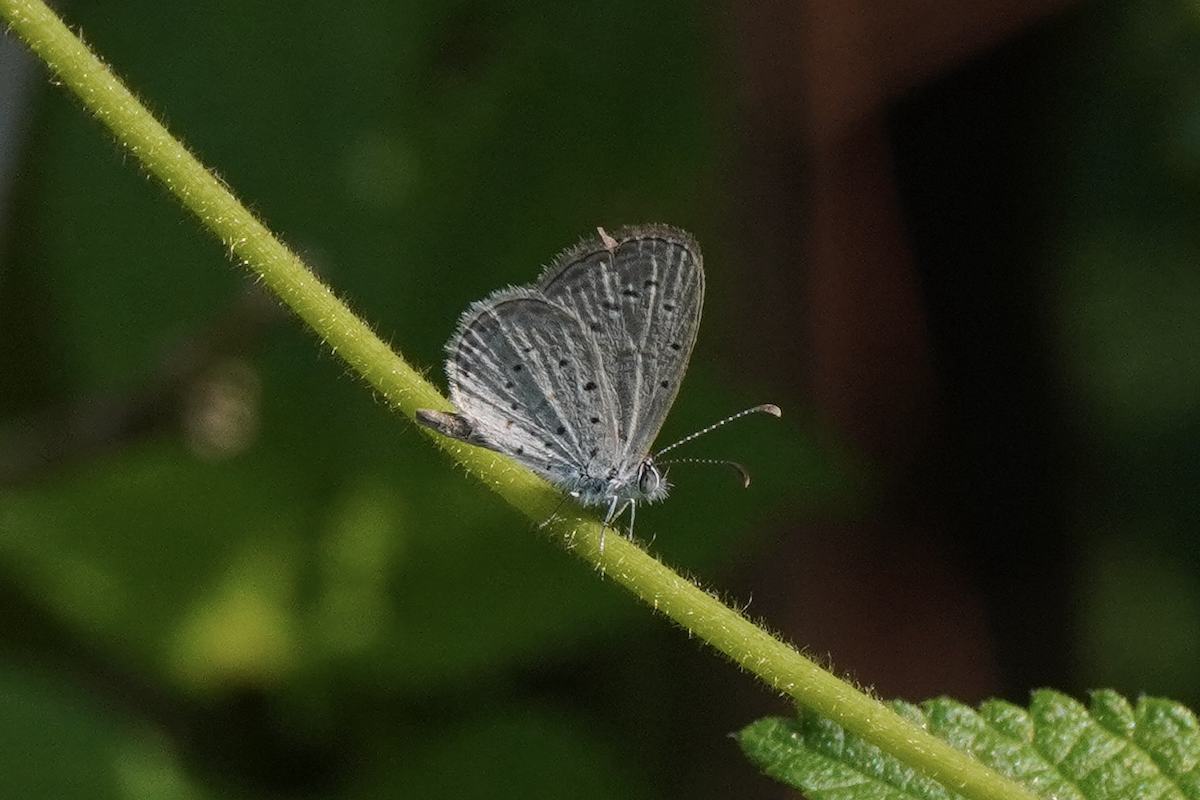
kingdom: Animalia
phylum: Arthropoda
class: Insecta
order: Lepidoptera
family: Lycaenidae
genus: Zizula
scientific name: Zizula hylax
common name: Gaika blue
